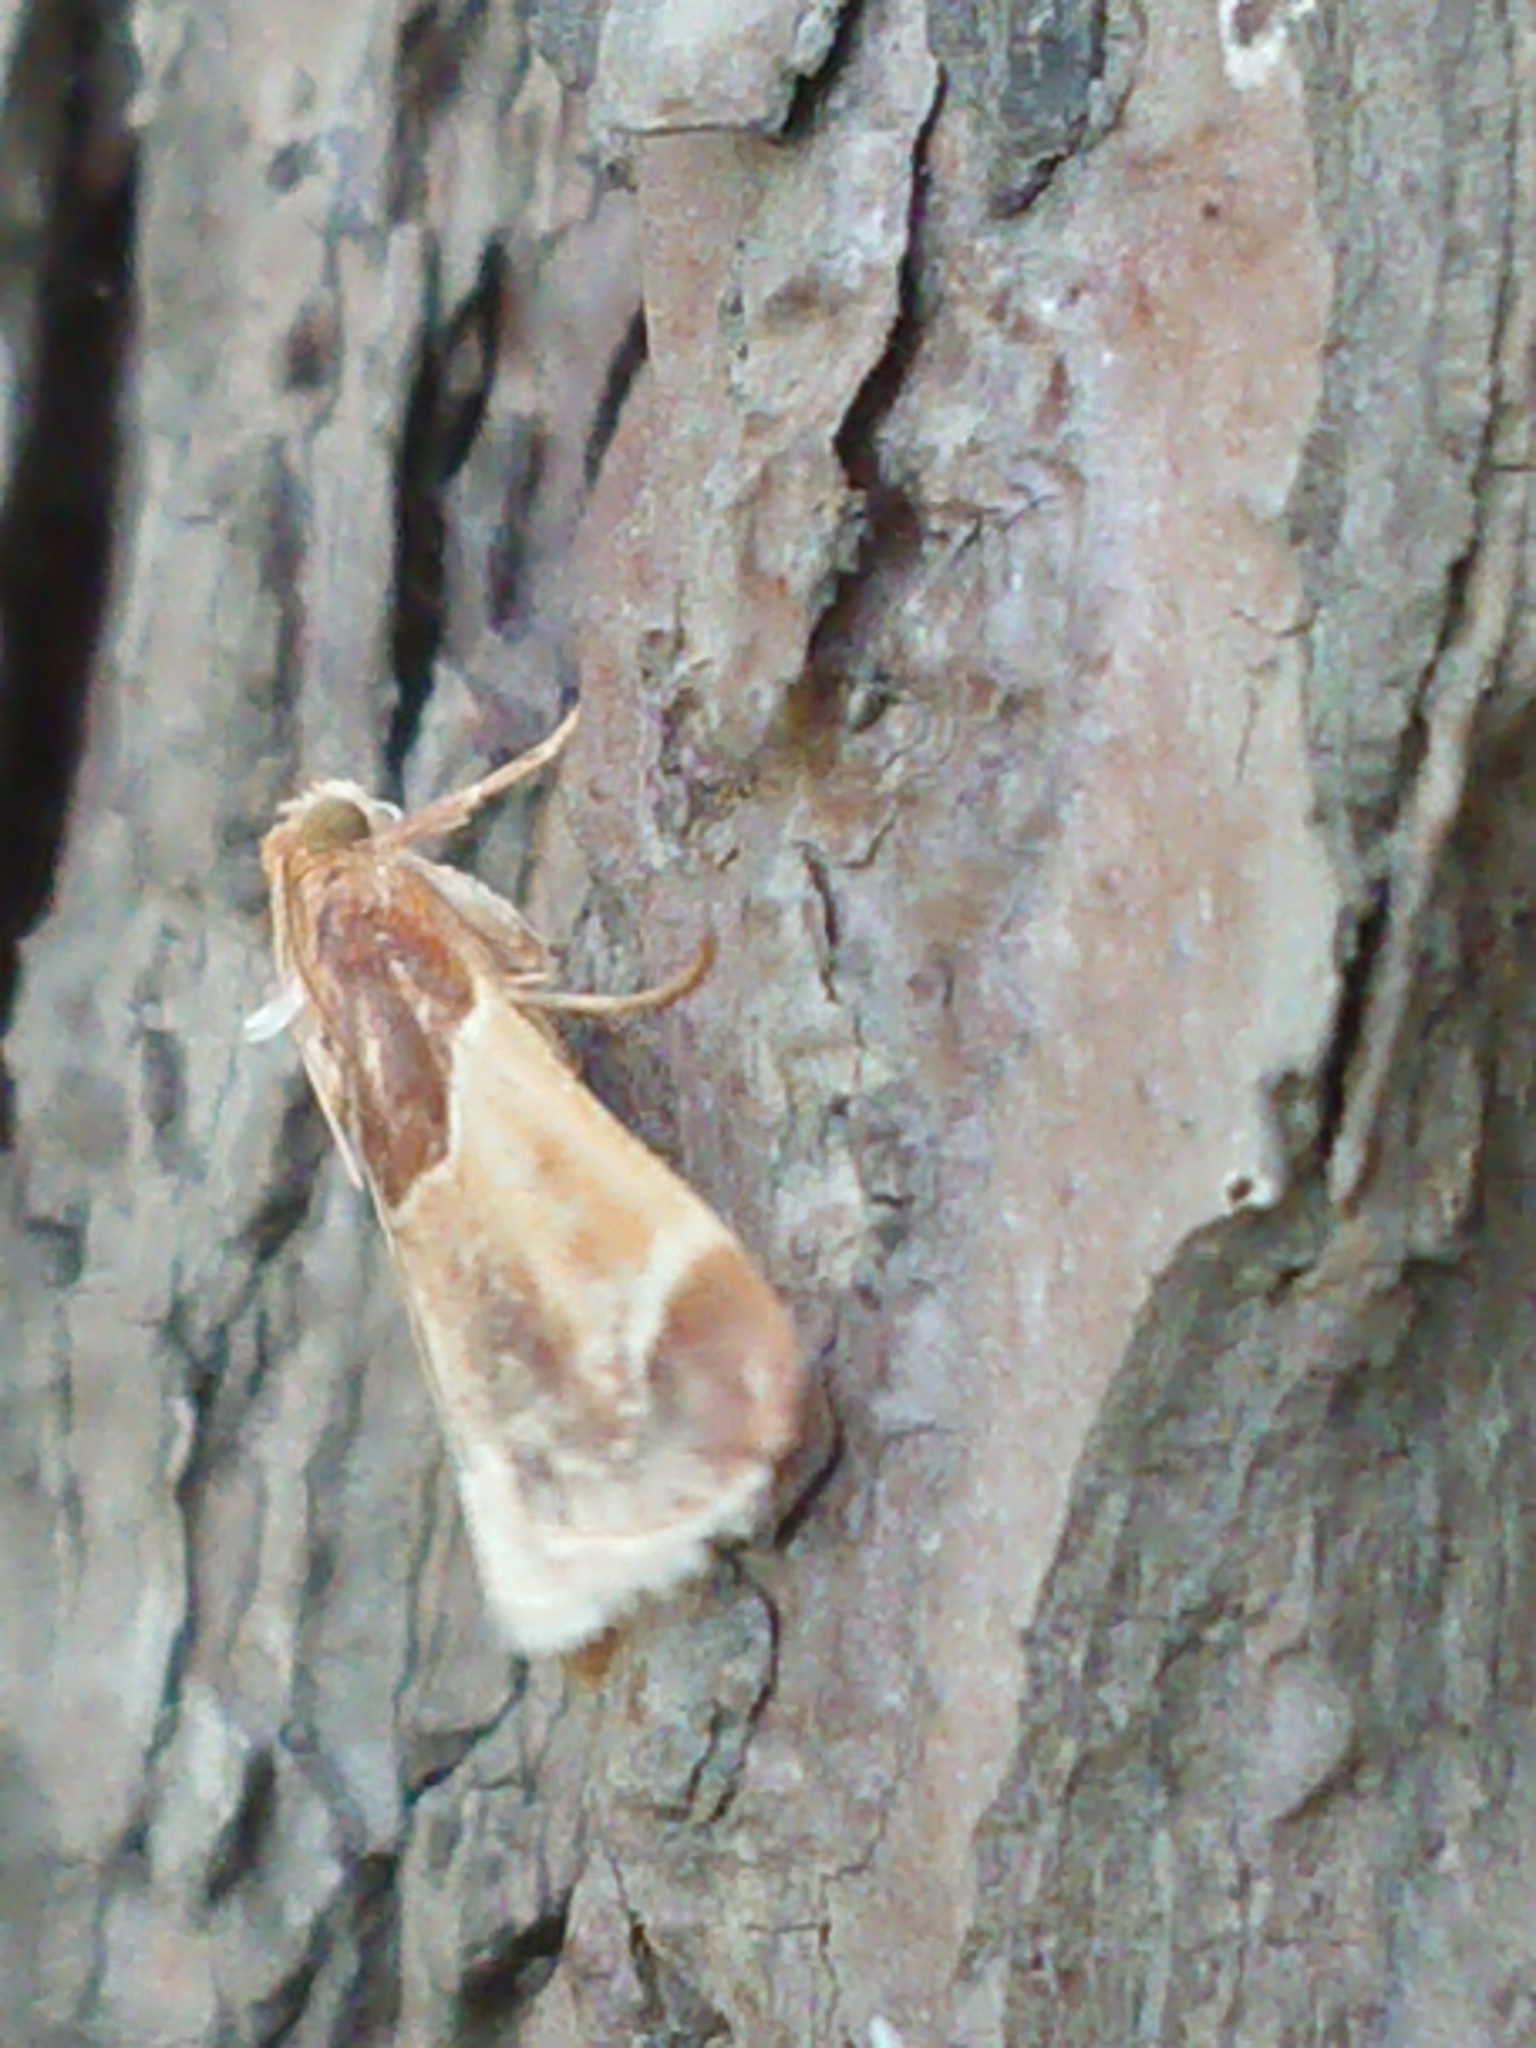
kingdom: Animalia
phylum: Arthropoda
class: Insecta
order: Lepidoptera
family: Pyralidae
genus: Pyralis
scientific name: Pyralis farinalis
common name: Meal moth
